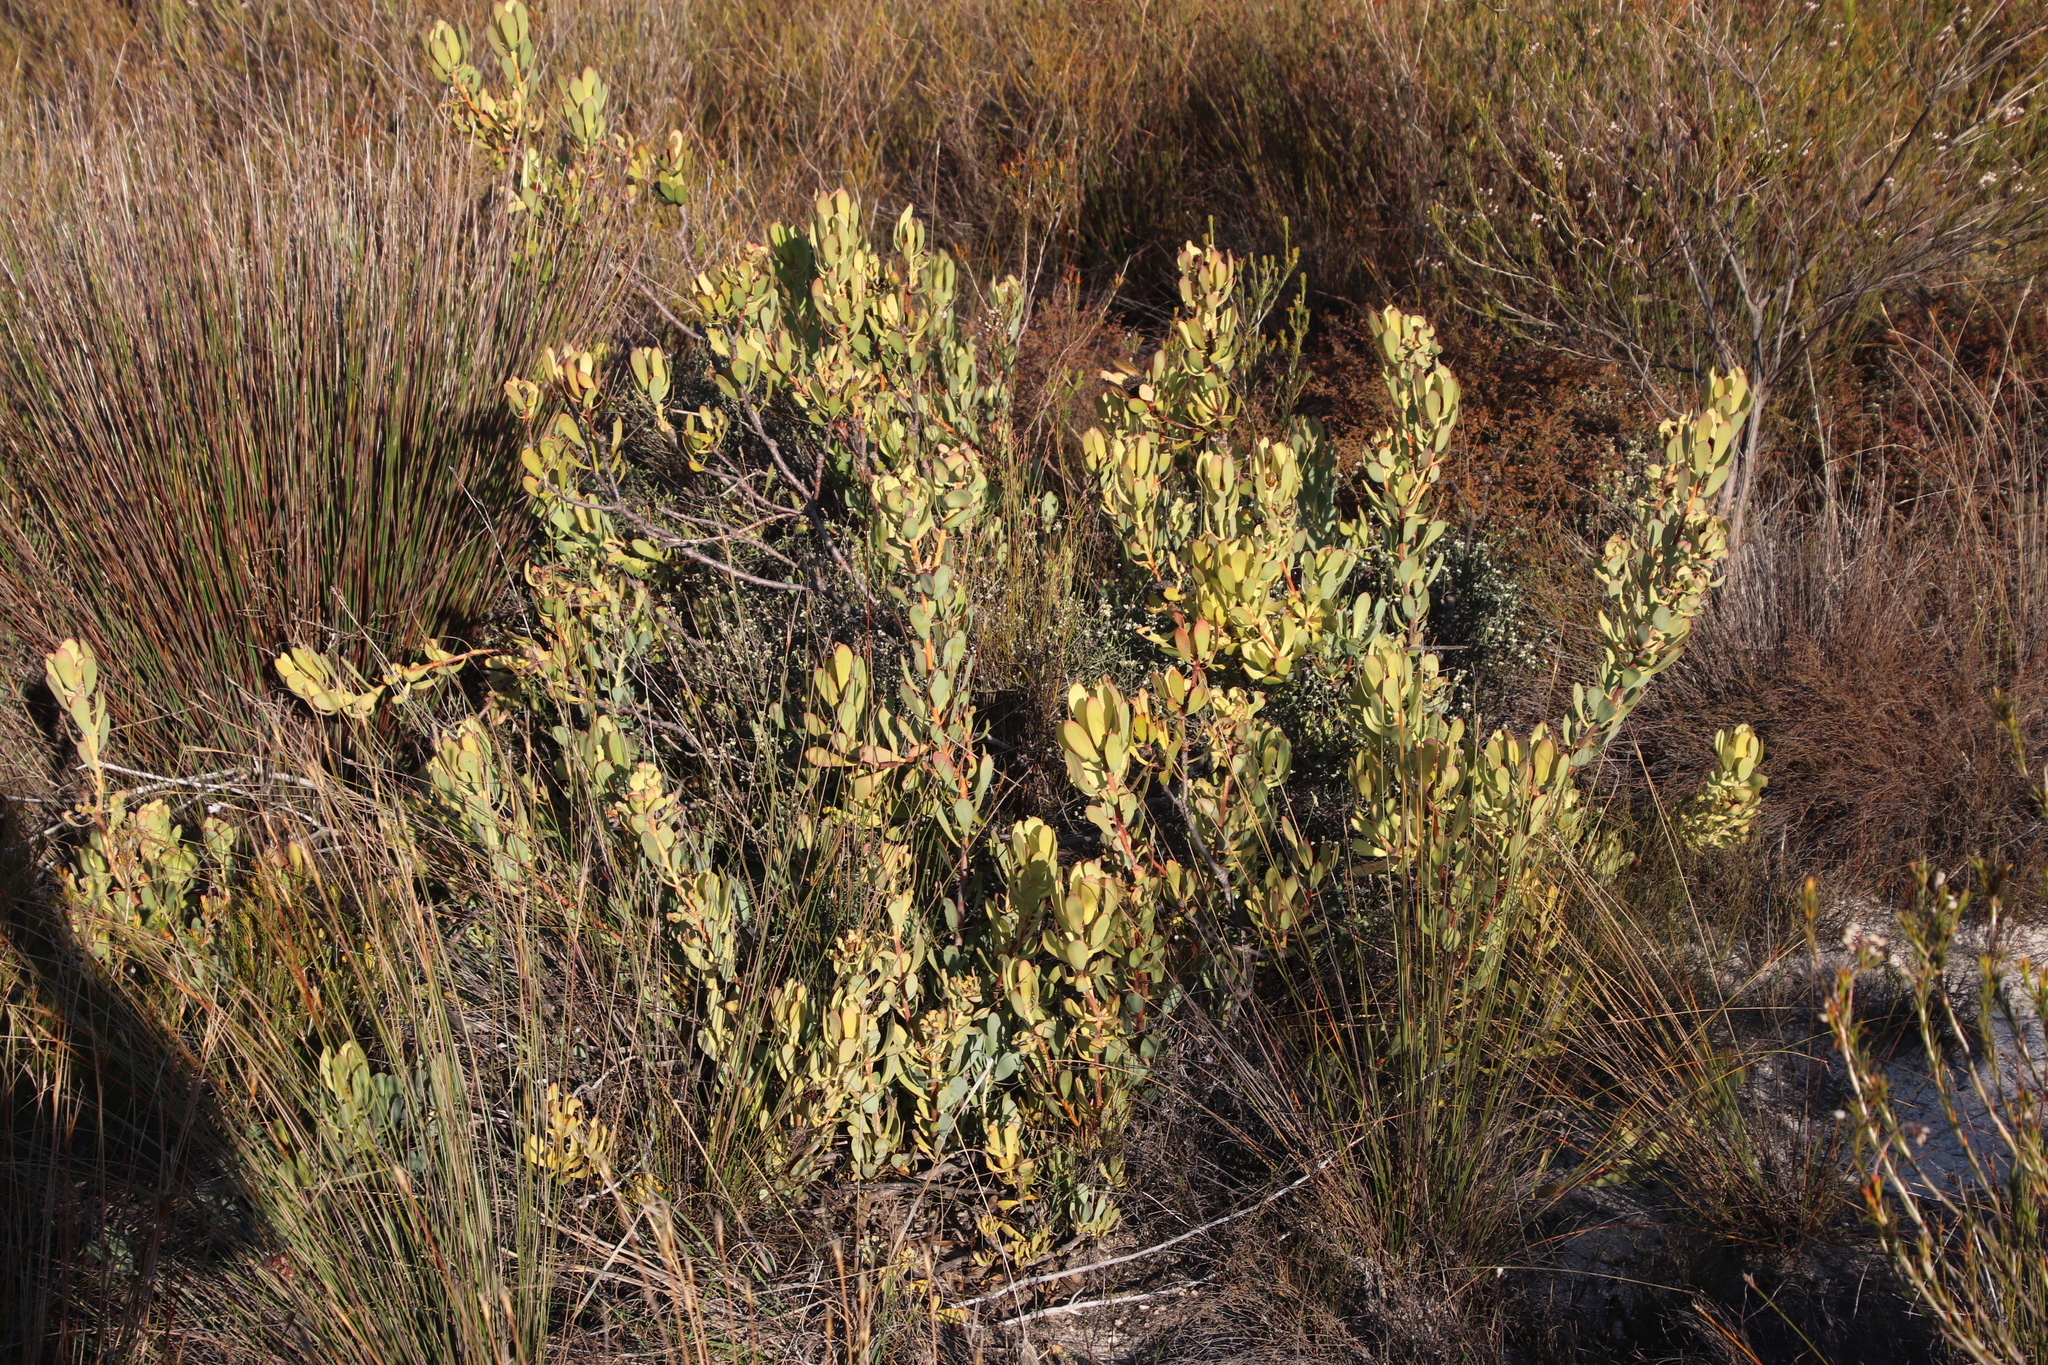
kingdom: Plantae
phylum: Tracheophyta
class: Magnoliopsida
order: Proteales
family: Proteaceae
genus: Leucadendron
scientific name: Leucadendron arcuatum
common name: Red-edge conebush
